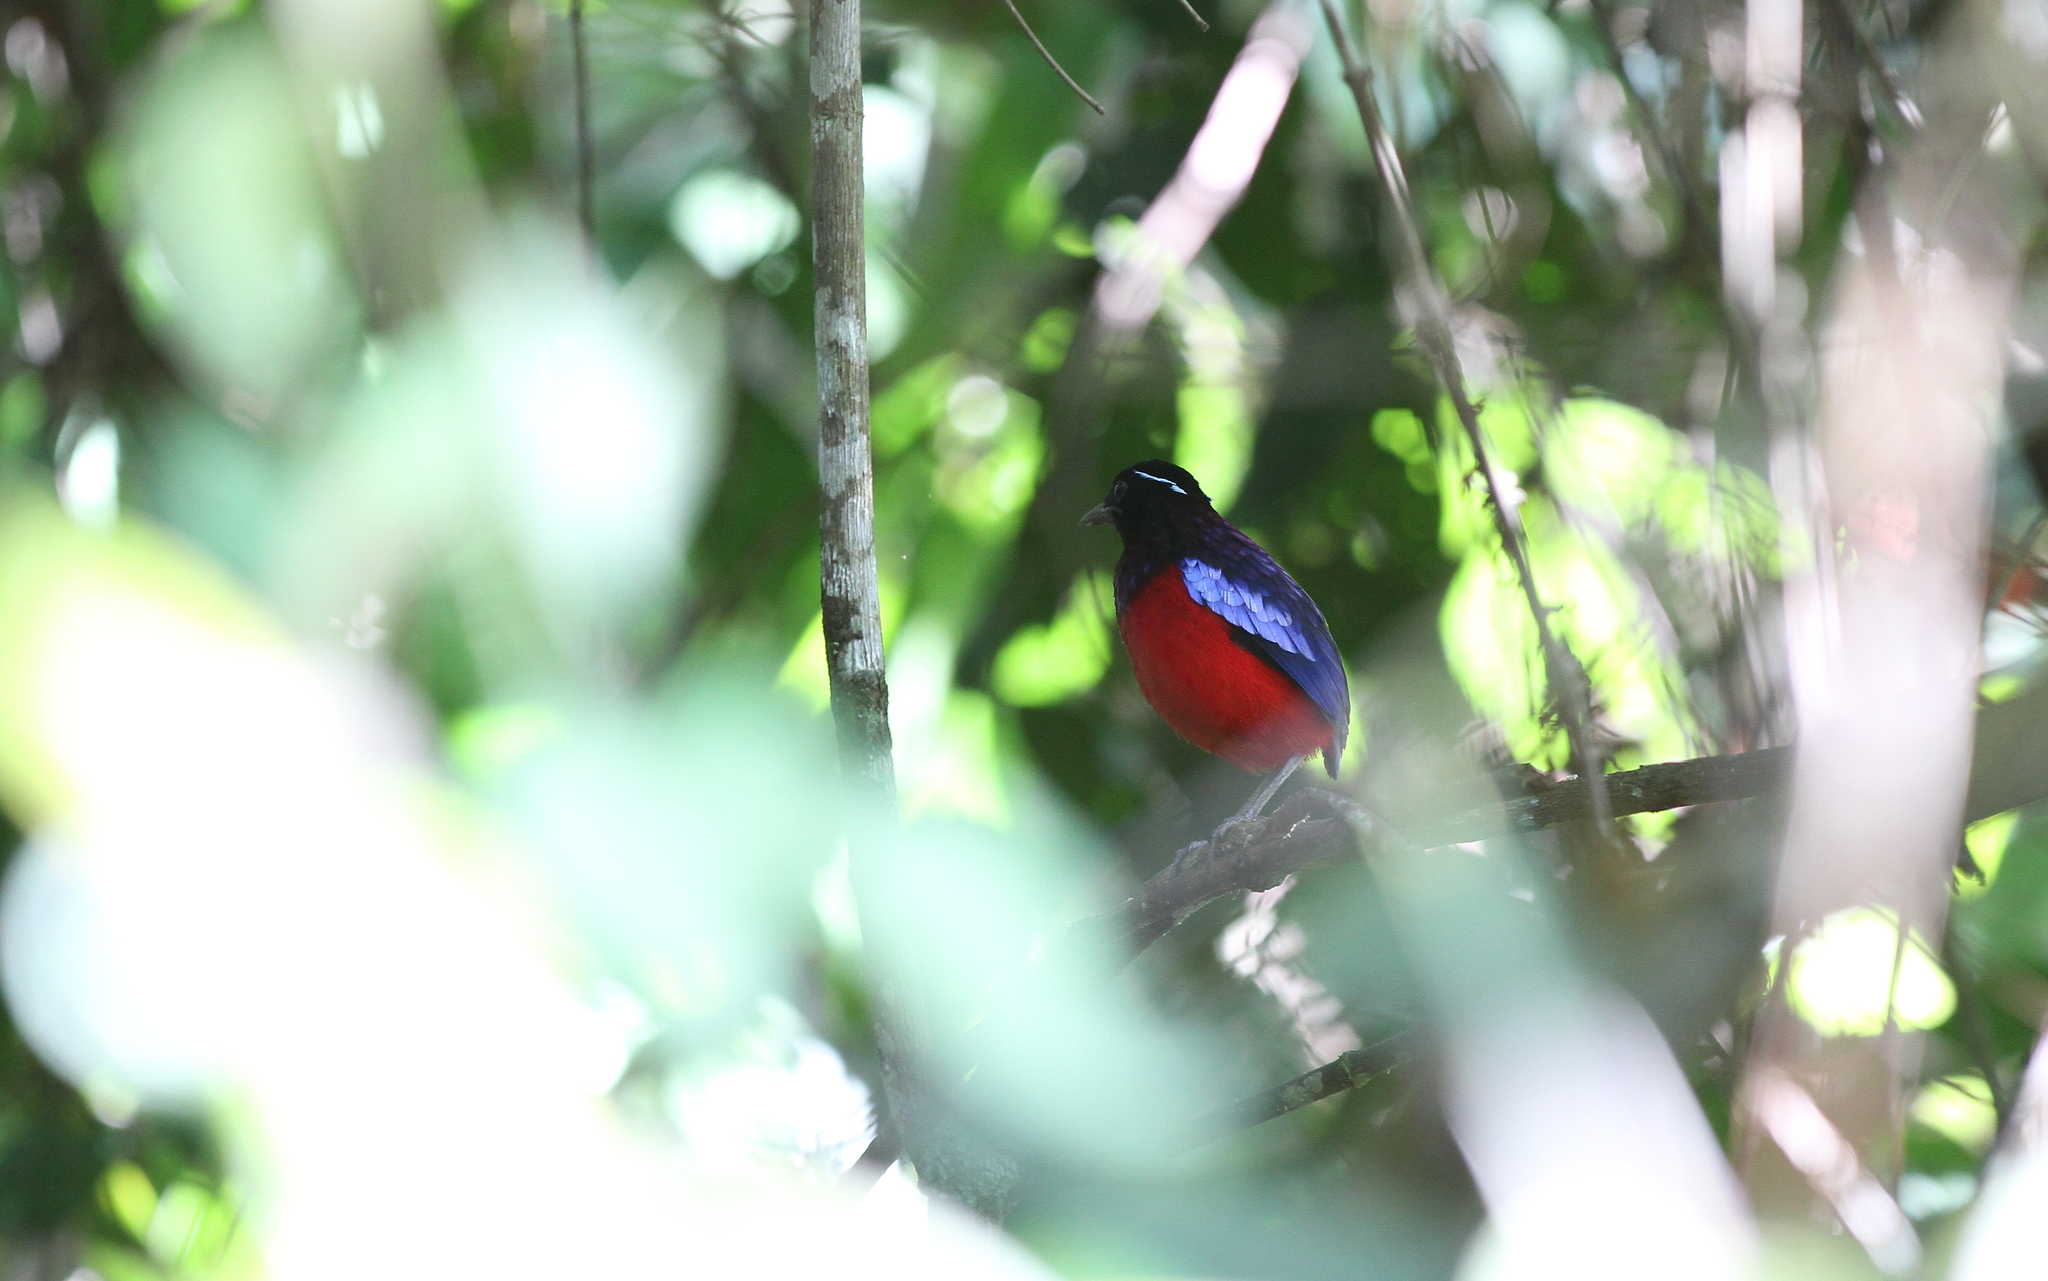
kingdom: Animalia
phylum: Chordata
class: Aves
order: Passeriformes
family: Pittidae
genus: Erythropitta
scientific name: Erythropitta ussheri
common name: Black-crowned pitta
